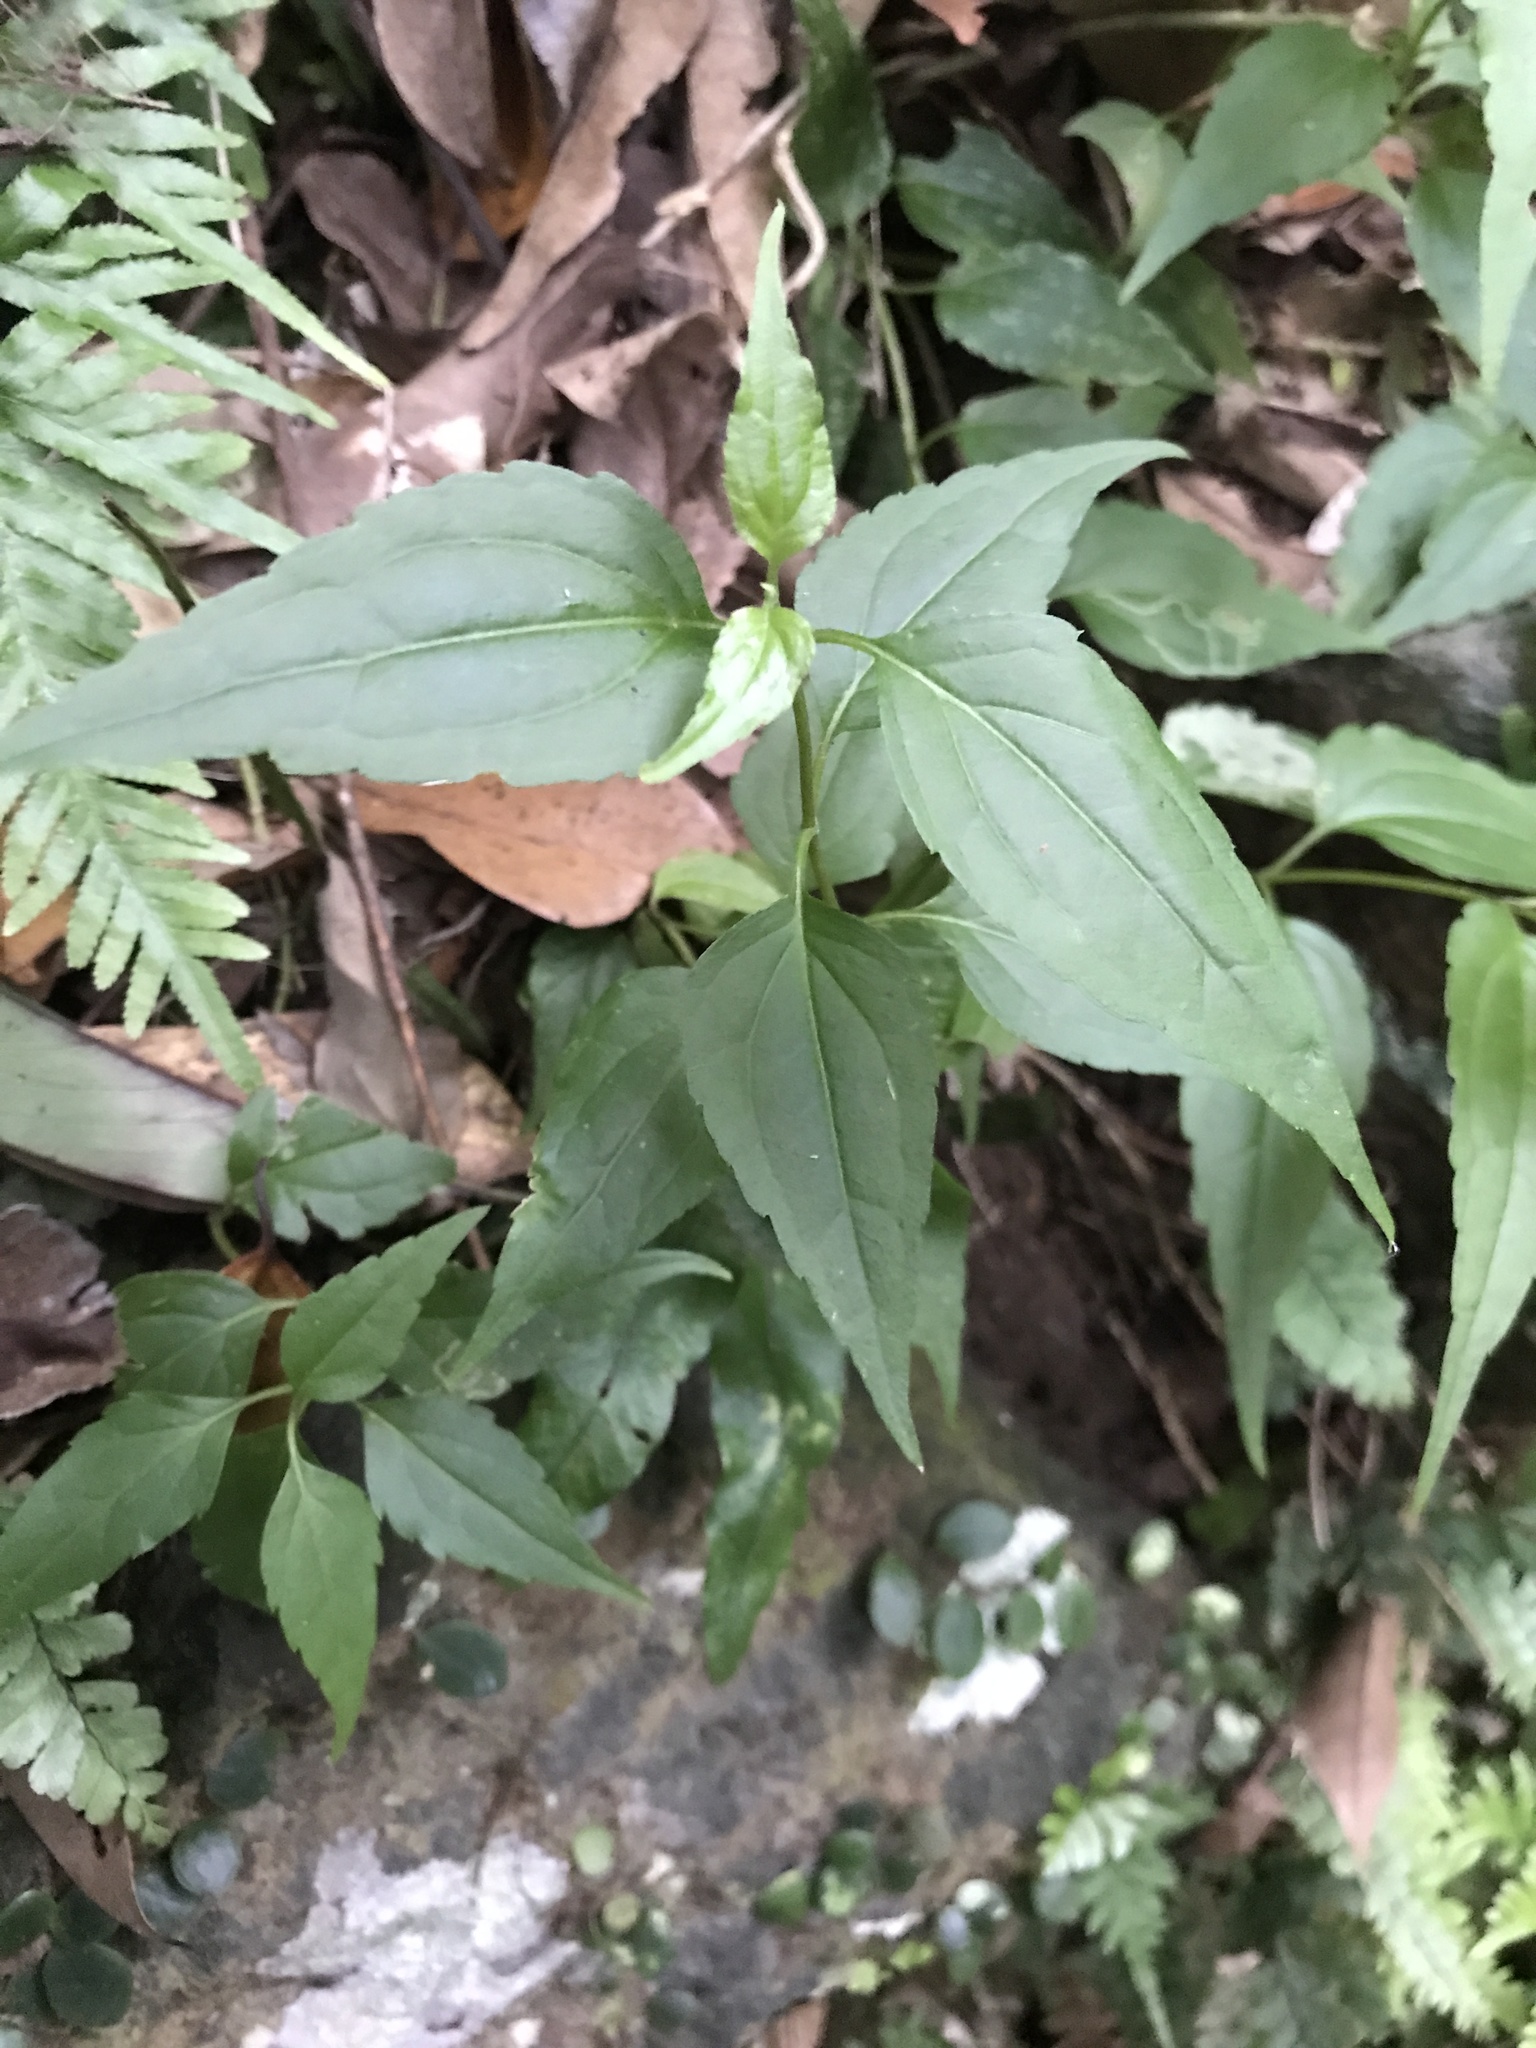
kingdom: Plantae
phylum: Tracheophyta
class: Magnoliopsida
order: Asterales
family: Asteraceae
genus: Eupatorium
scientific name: Eupatorium tashiroi
